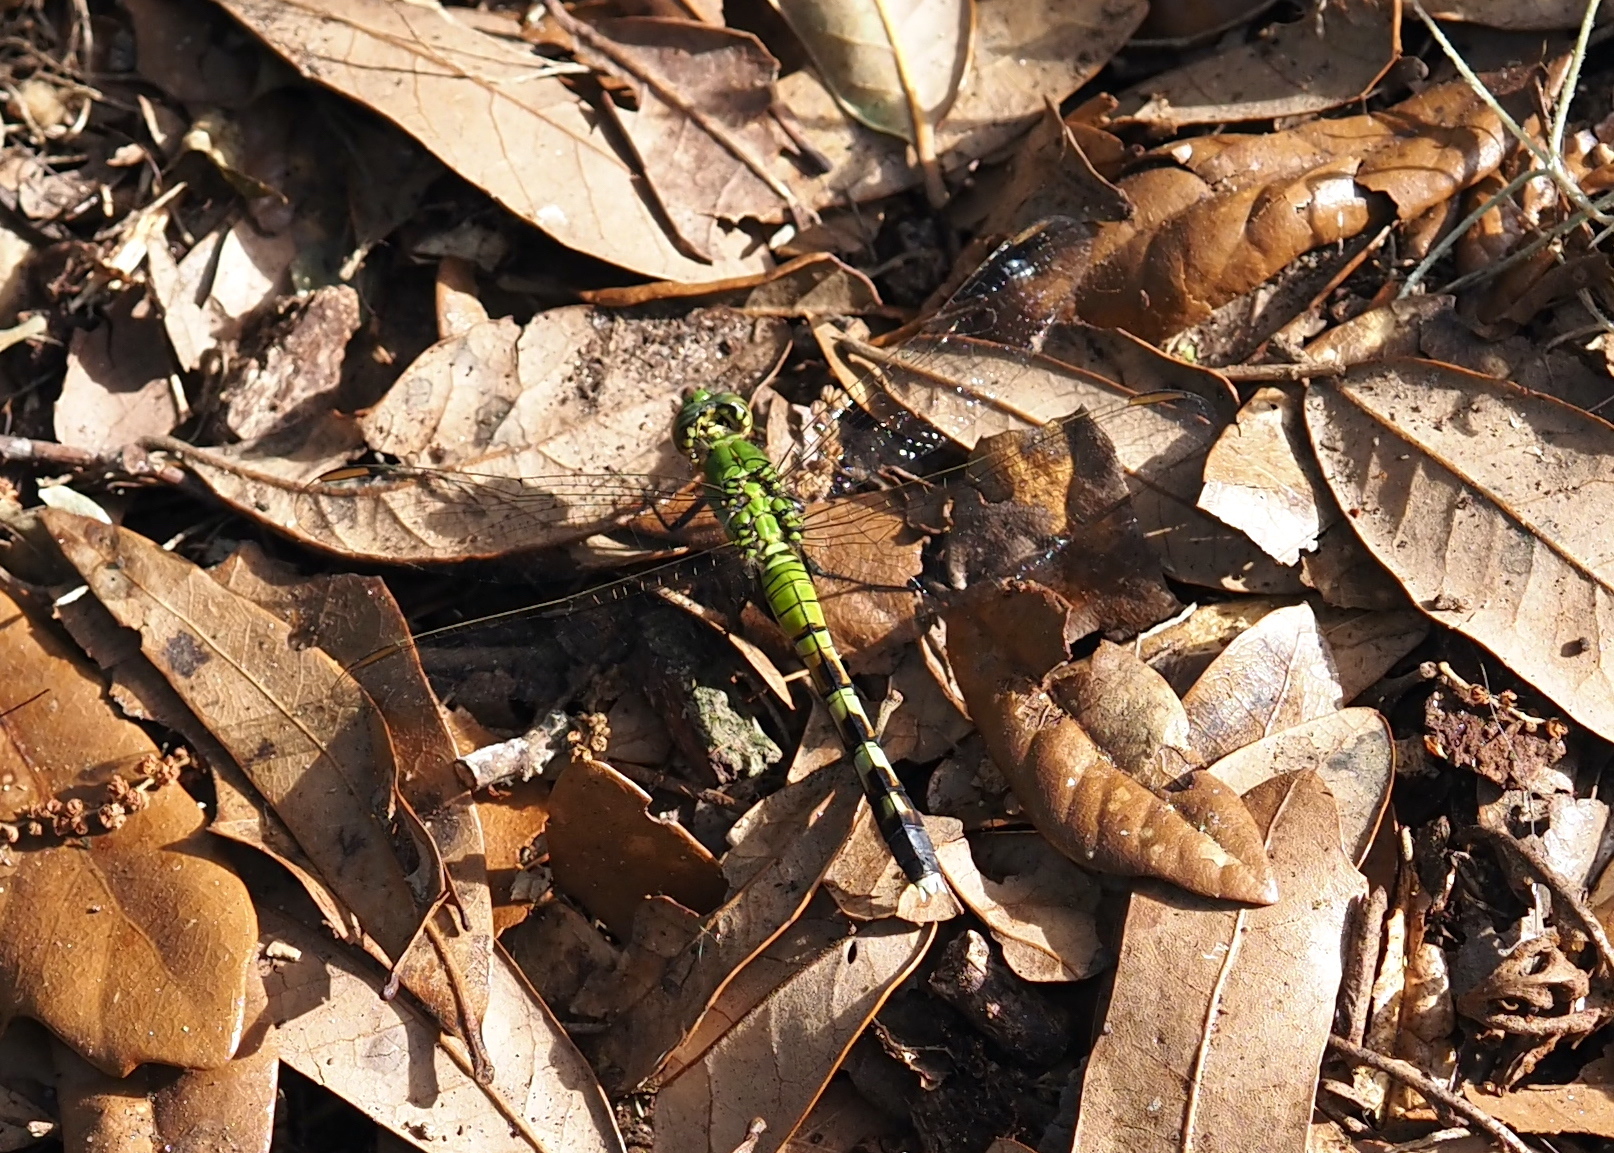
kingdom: Animalia
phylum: Arthropoda
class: Insecta
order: Odonata
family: Libellulidae
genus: Erythemis
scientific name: Erythemis simplicicollis
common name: Eastern pondhawk
